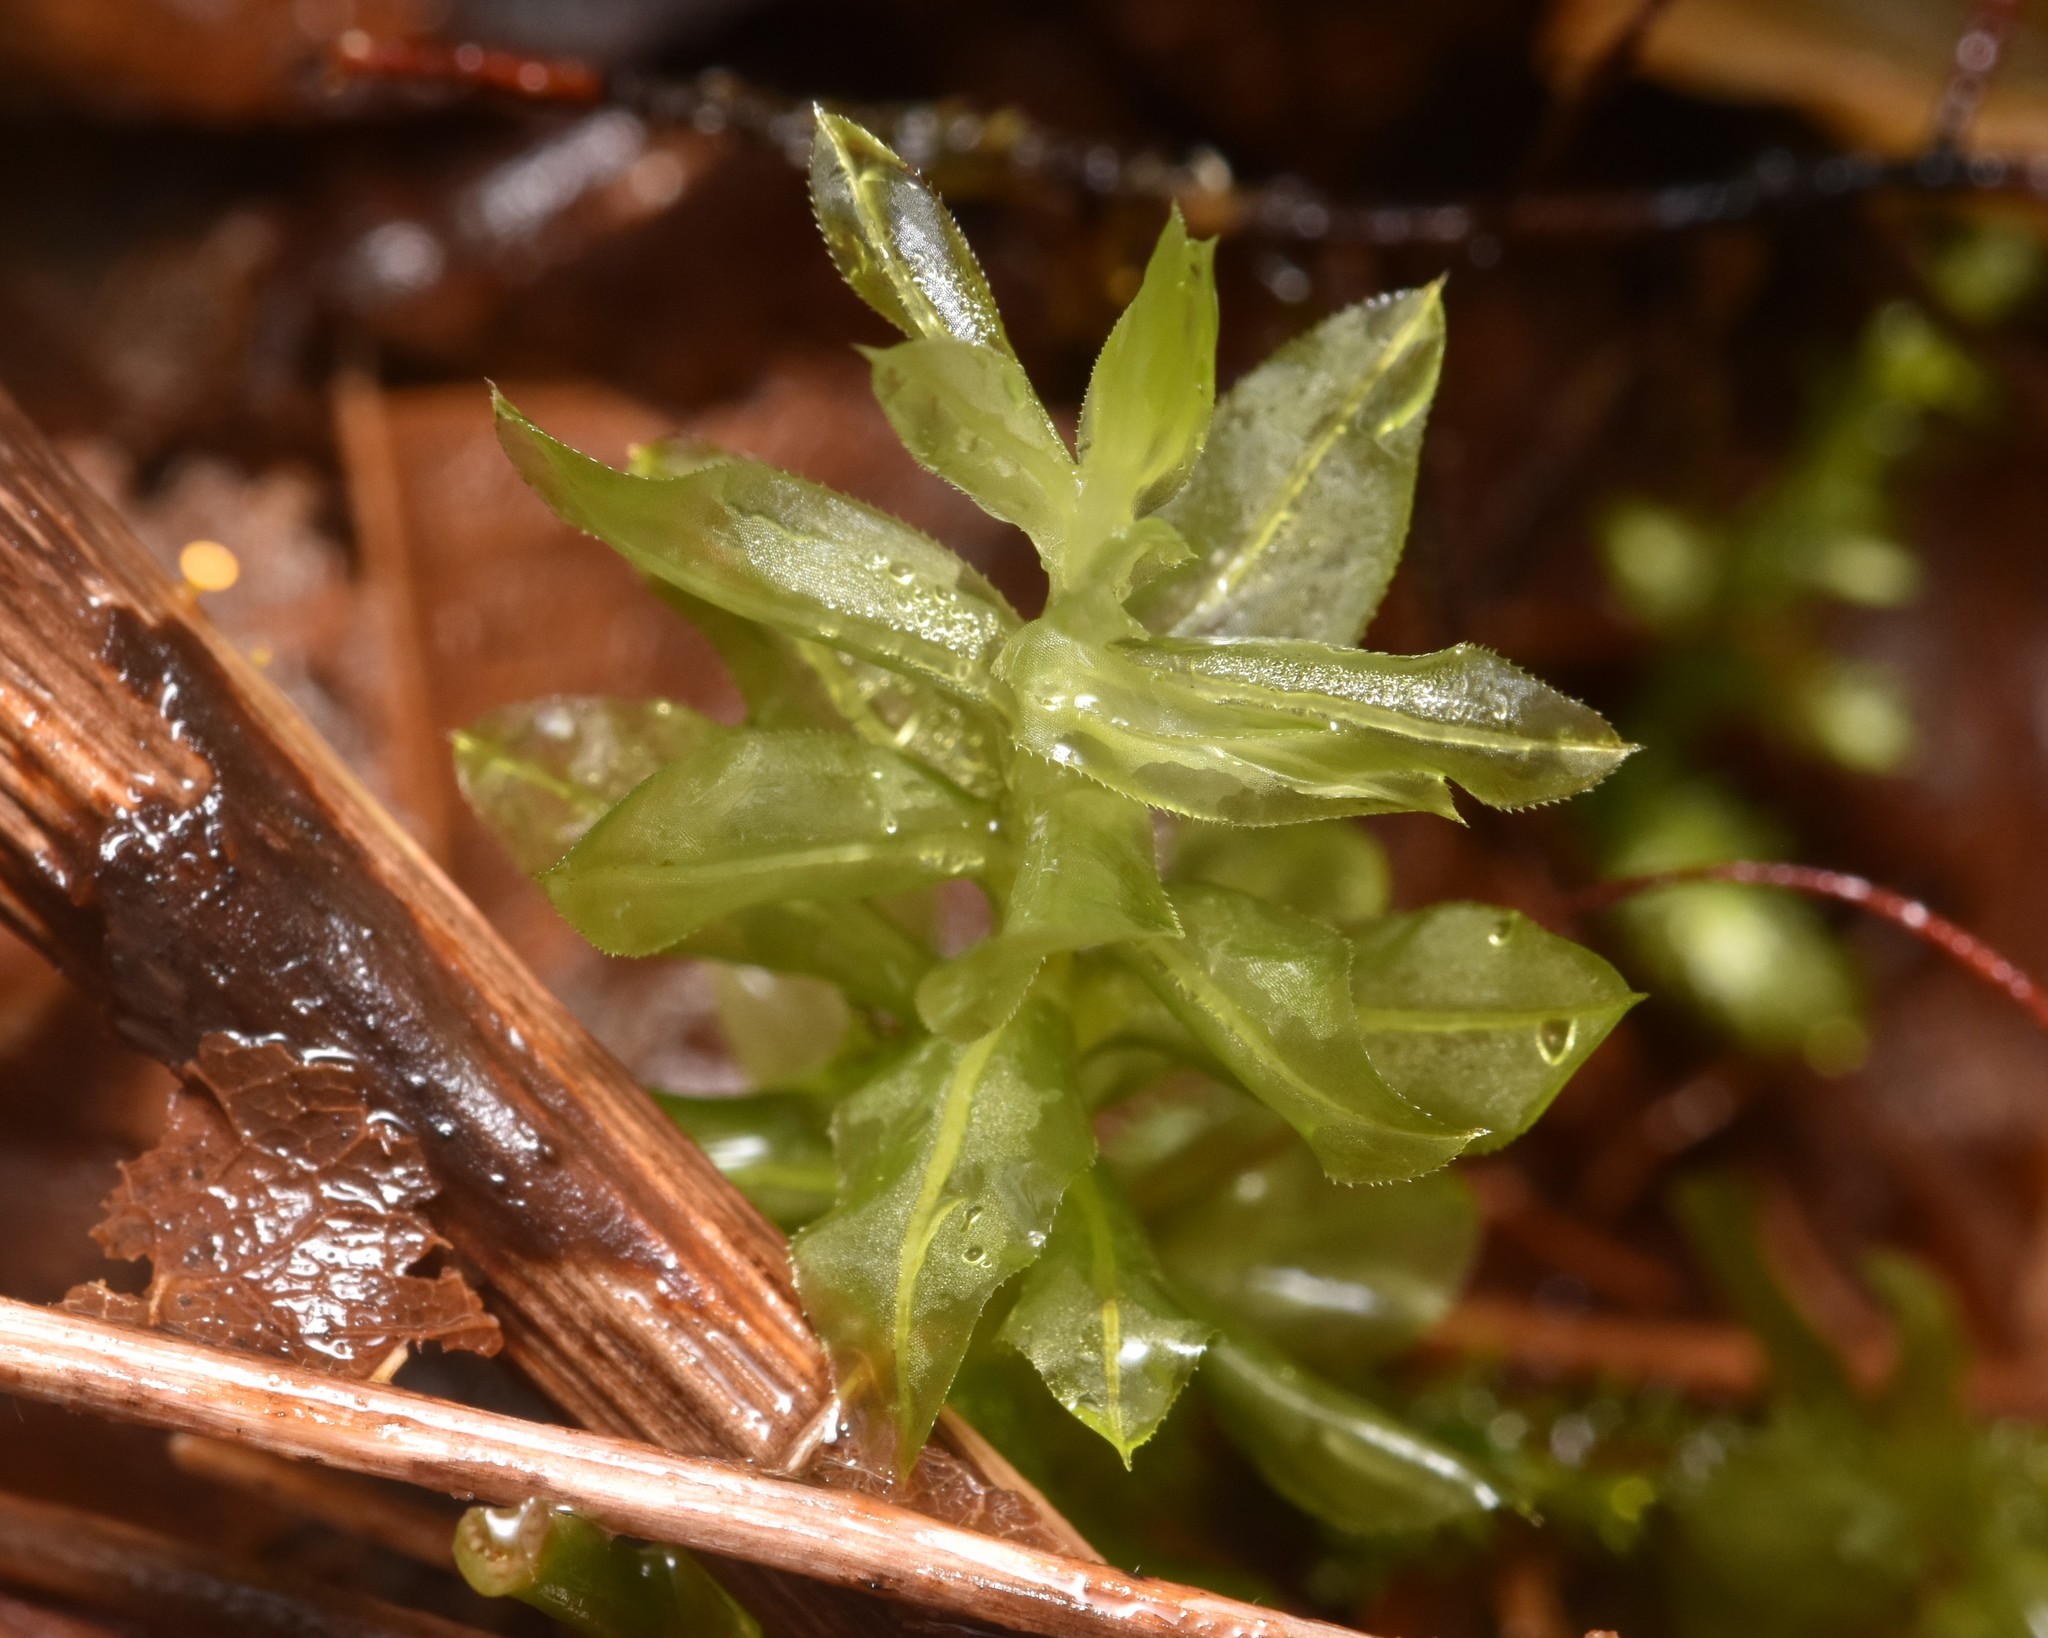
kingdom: Plantae
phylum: Bryophyta
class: Bryopsida
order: Bryales
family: Mniaceae
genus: Plagiomnium
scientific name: Plagiomnium insigne
